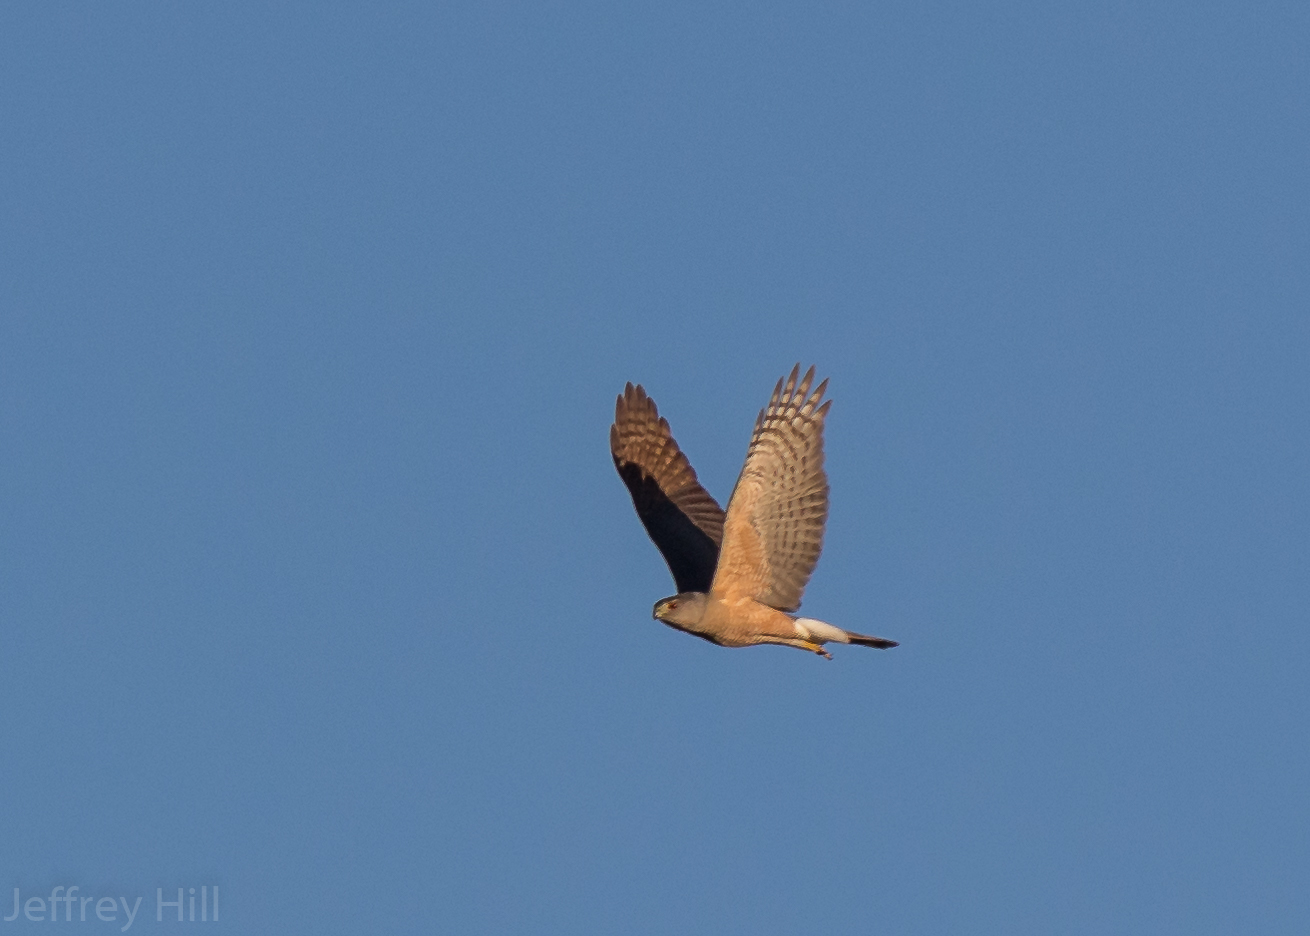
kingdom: Animalia
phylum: Chordata
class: Aves
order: Accipitriformes
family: Accipitridae
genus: Accipiter
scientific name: Accipiter cooperii
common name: Cooper's hawk
